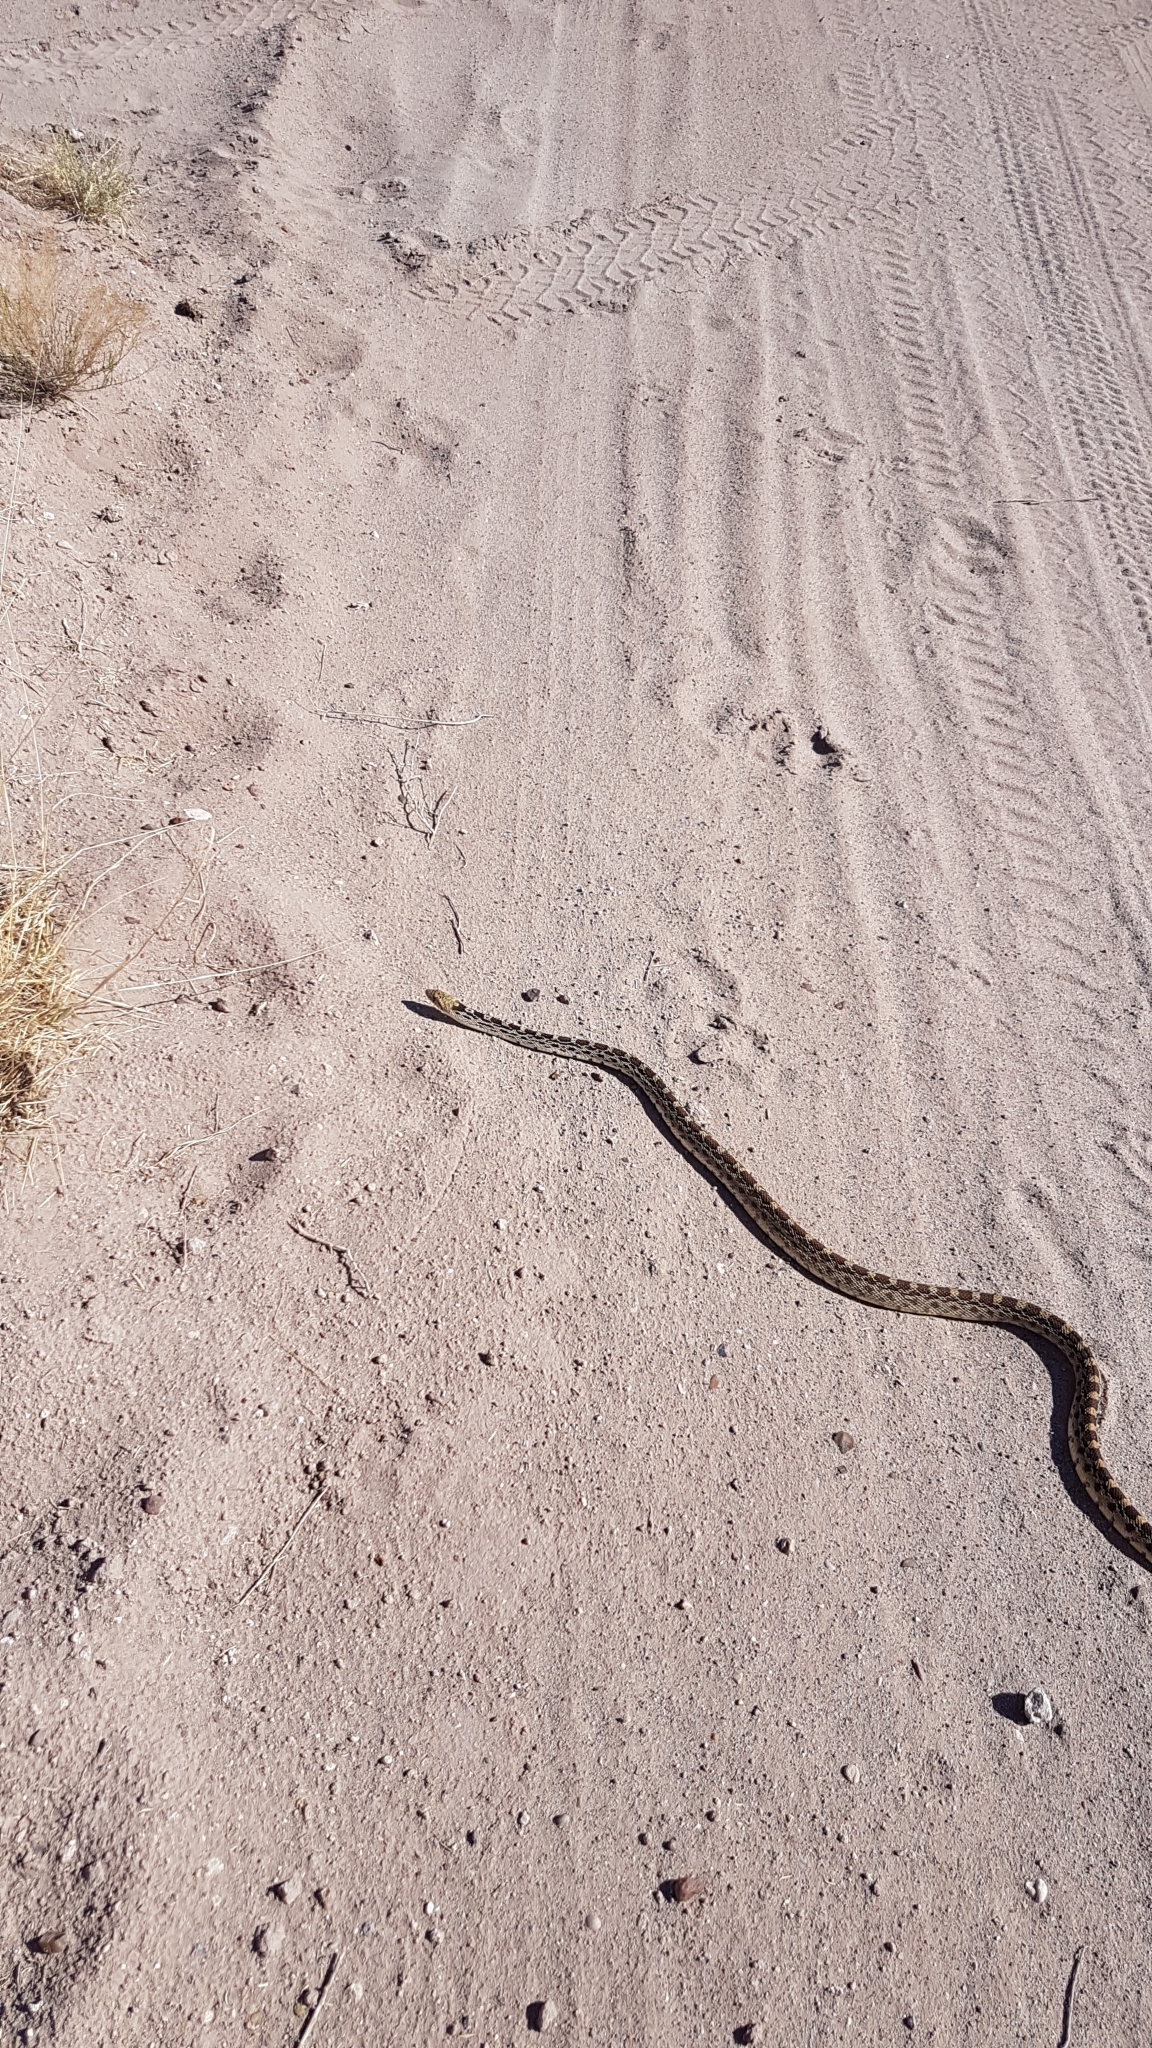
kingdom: Animalia
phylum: Chordata
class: Squamata
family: Colubridae
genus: Pituophis
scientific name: Pituophis catenifer
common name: Gopher snake
